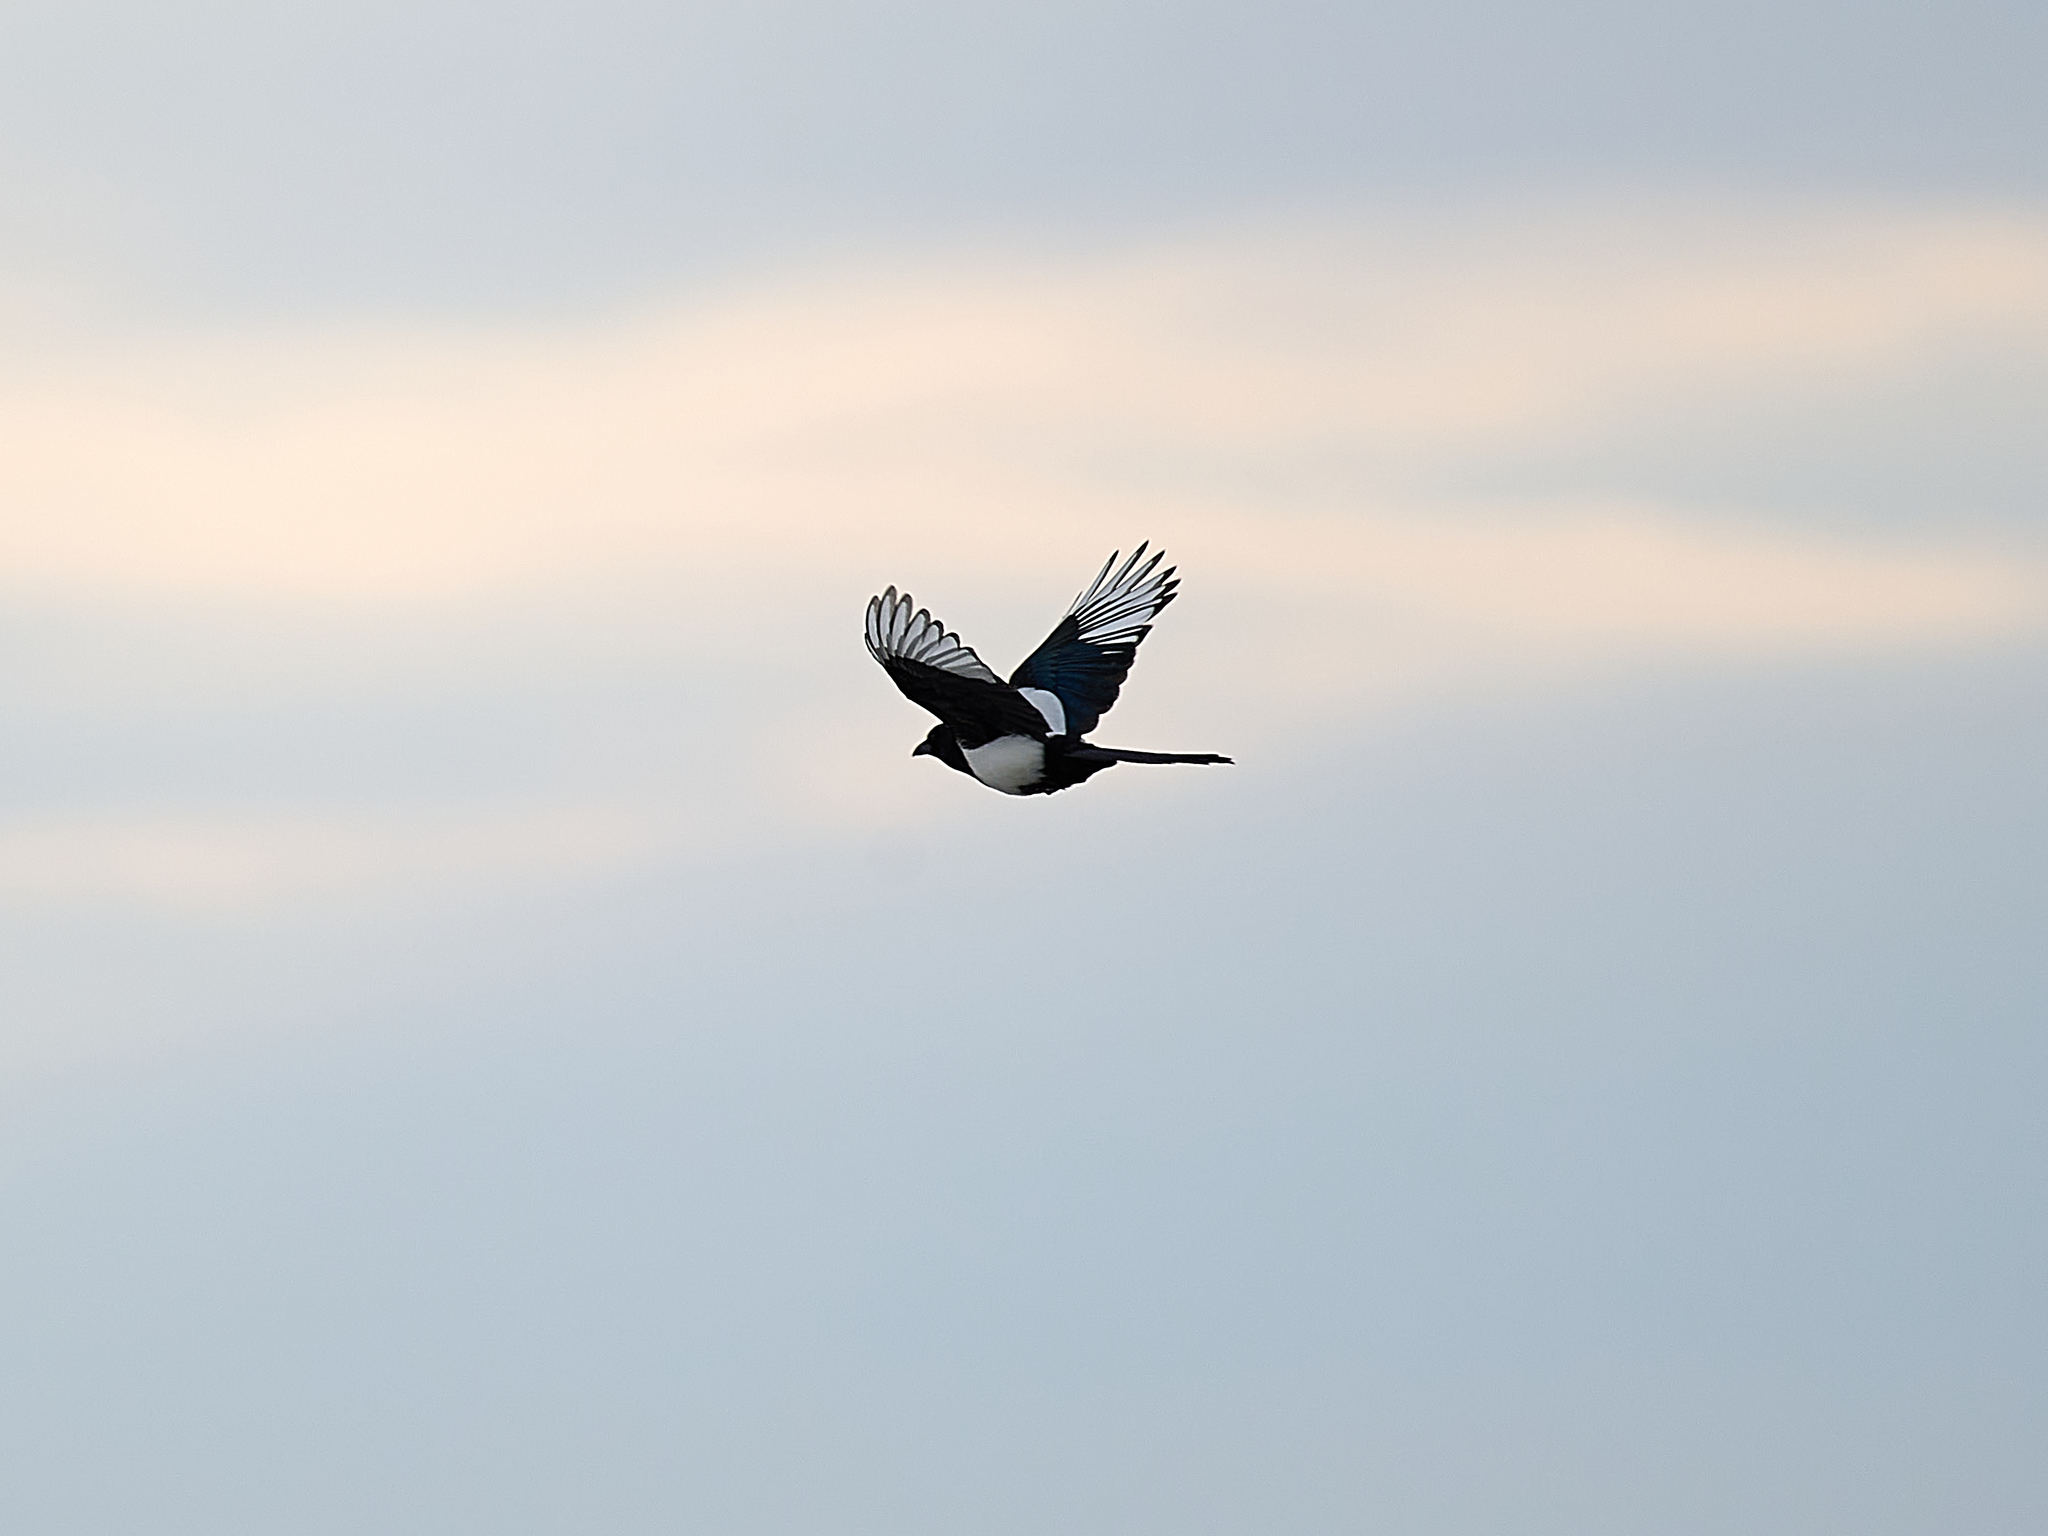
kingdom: Animalia
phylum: Chordata
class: Aves
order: Passeriformes
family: Corvidae
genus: Pica
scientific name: Pica pica
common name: Eurasian magpie
